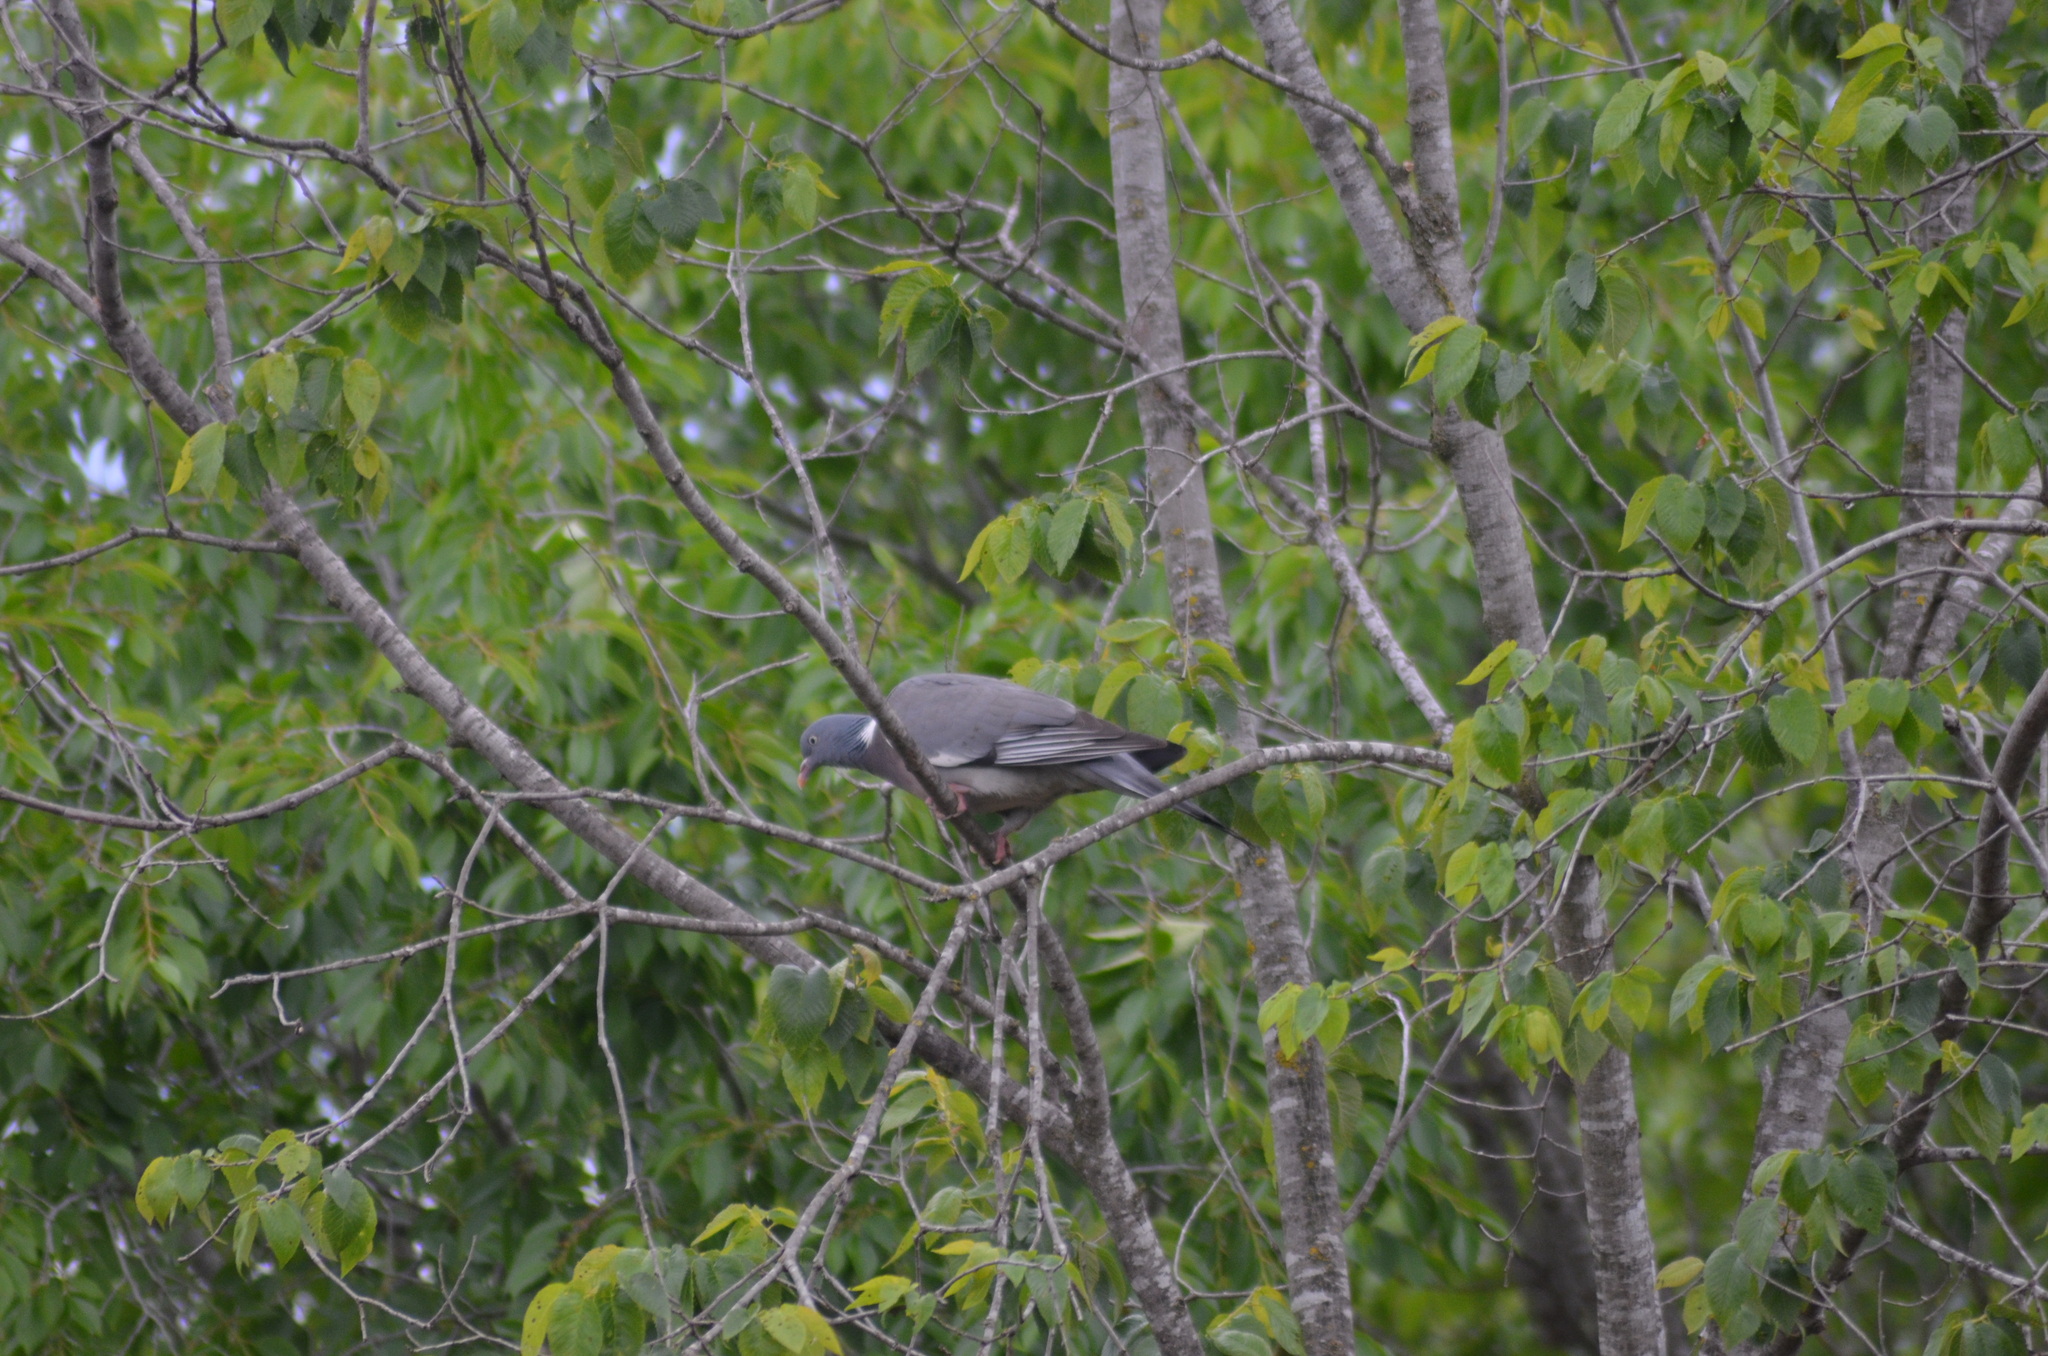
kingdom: Animalia
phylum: Chordata
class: Aves
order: Columbiformes
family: Columbidae
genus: Columba
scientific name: Columba palumbus
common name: Common wood pigeon
